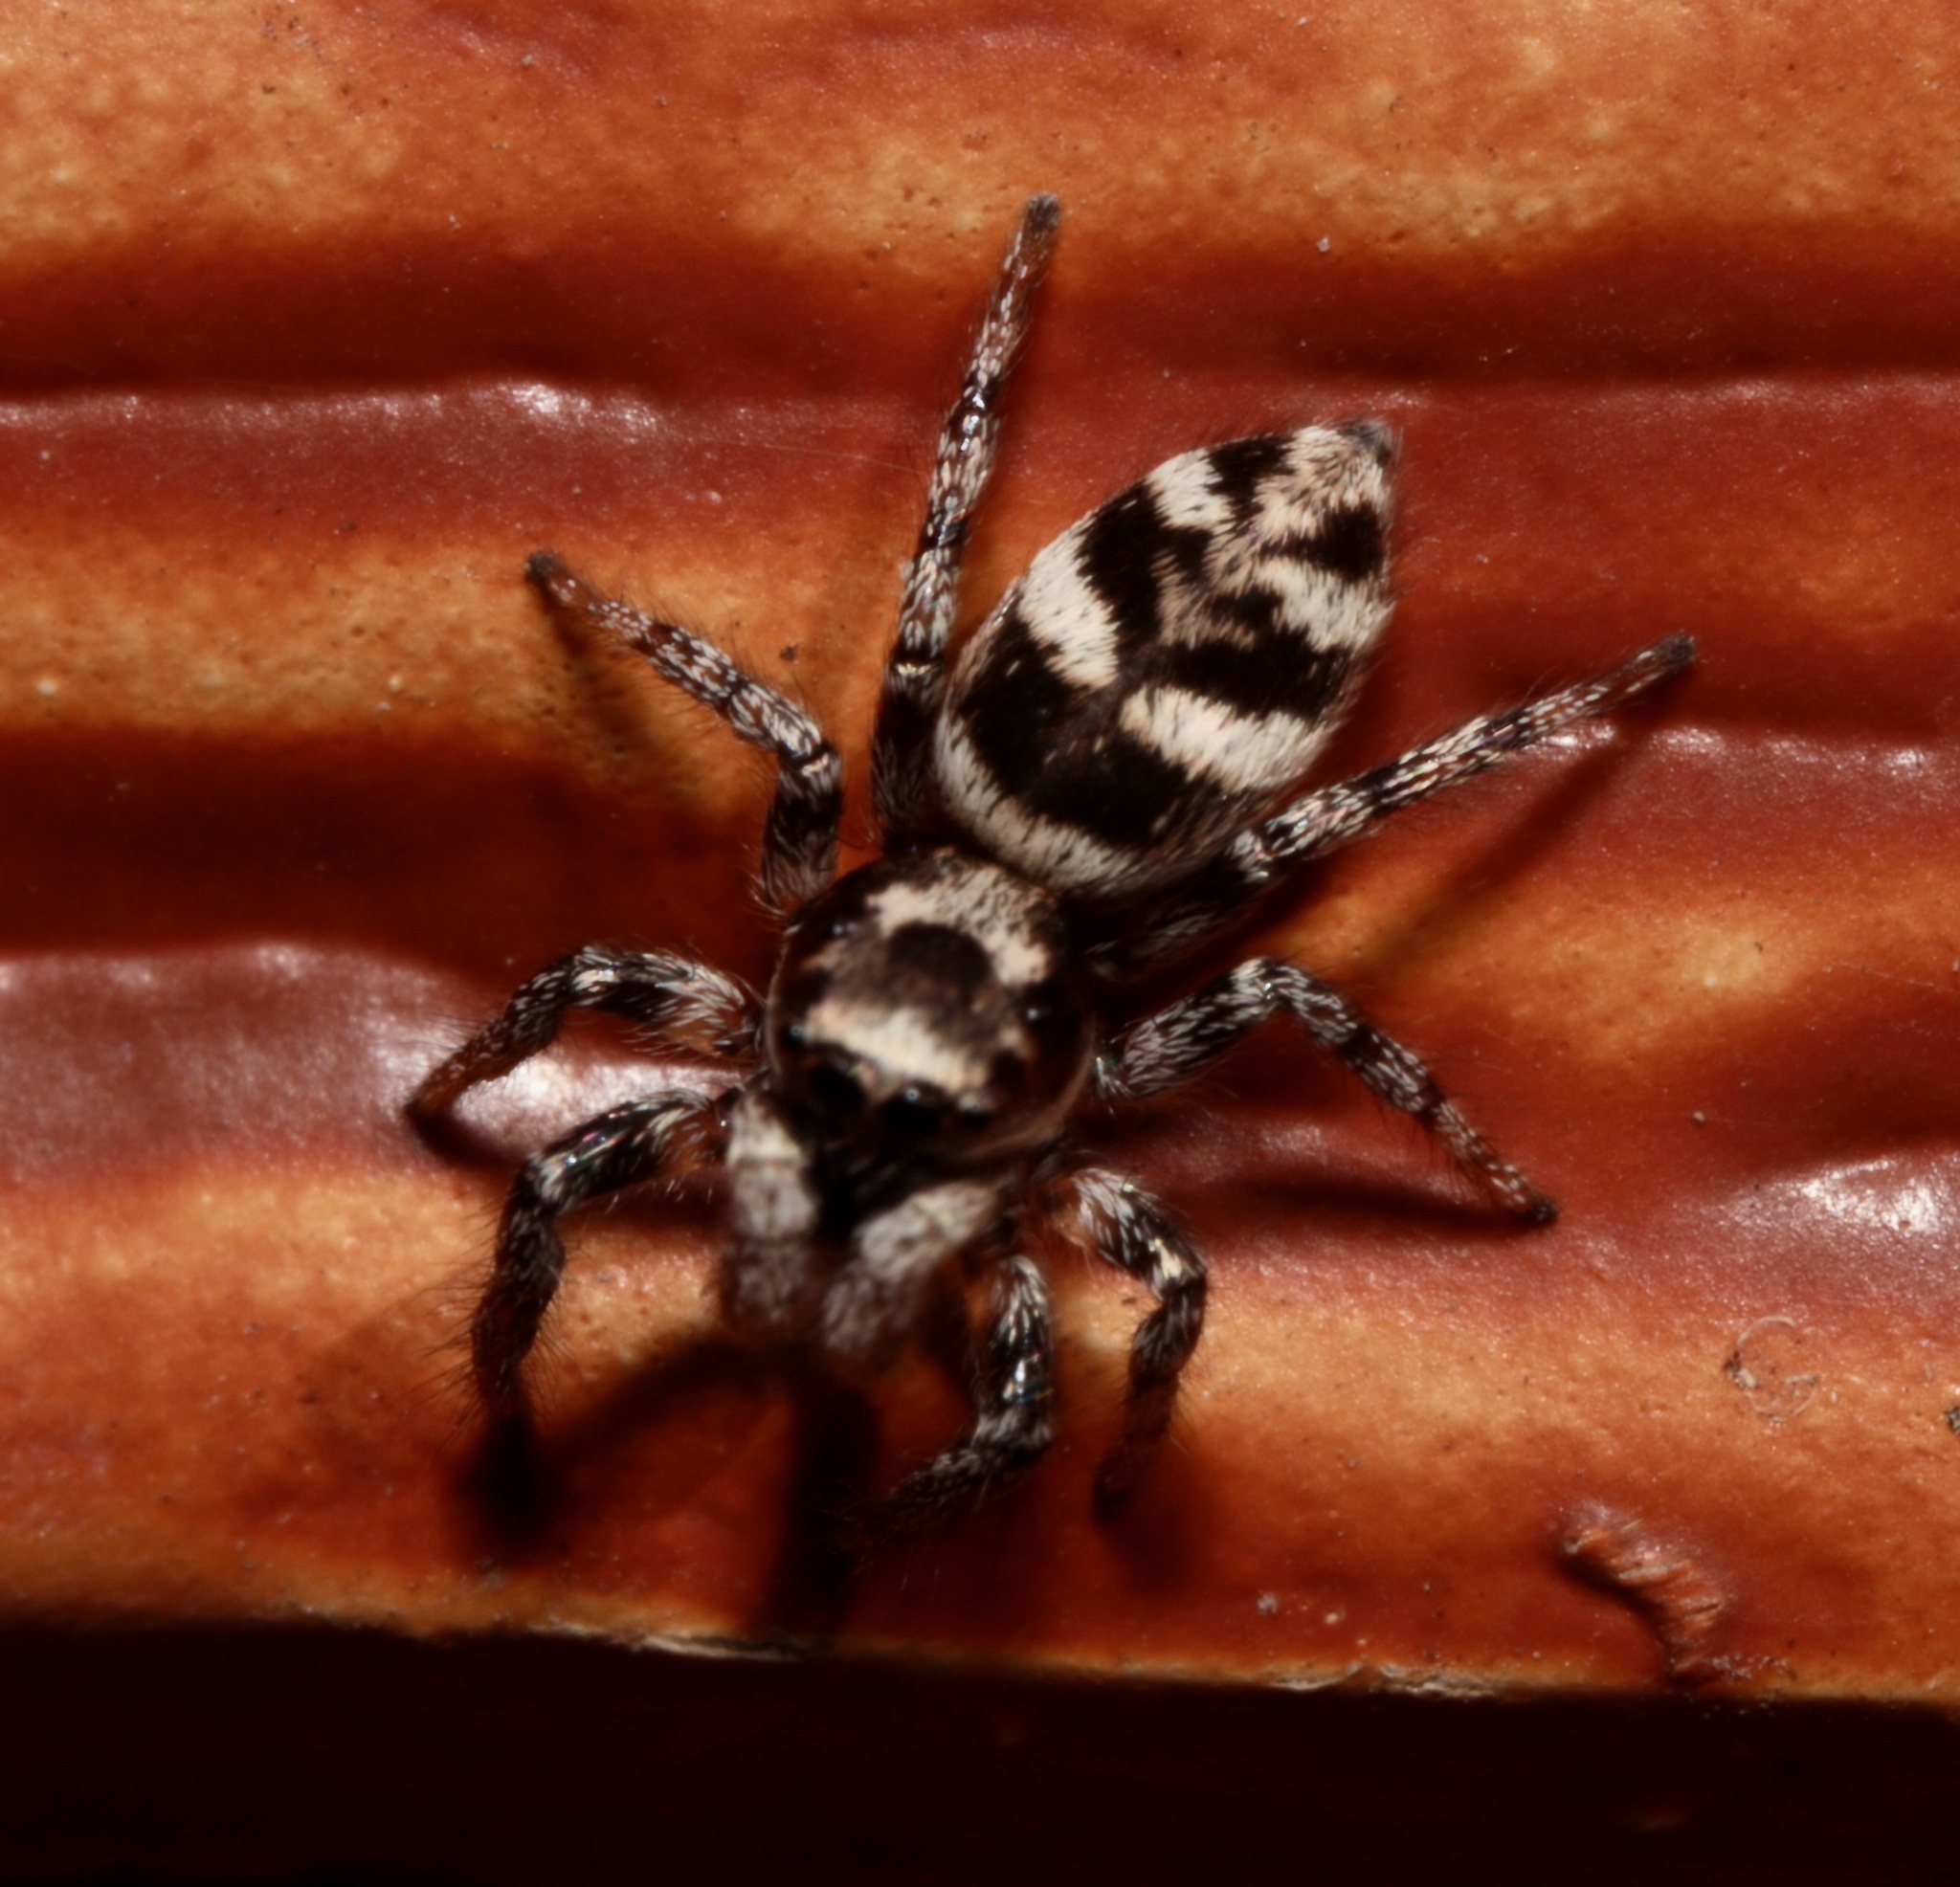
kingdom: Animalia
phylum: Arthropoda
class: Arachnida
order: Araneae
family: Salticidae
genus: Salticus
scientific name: Salticus scenicus
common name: Zebra jumper
